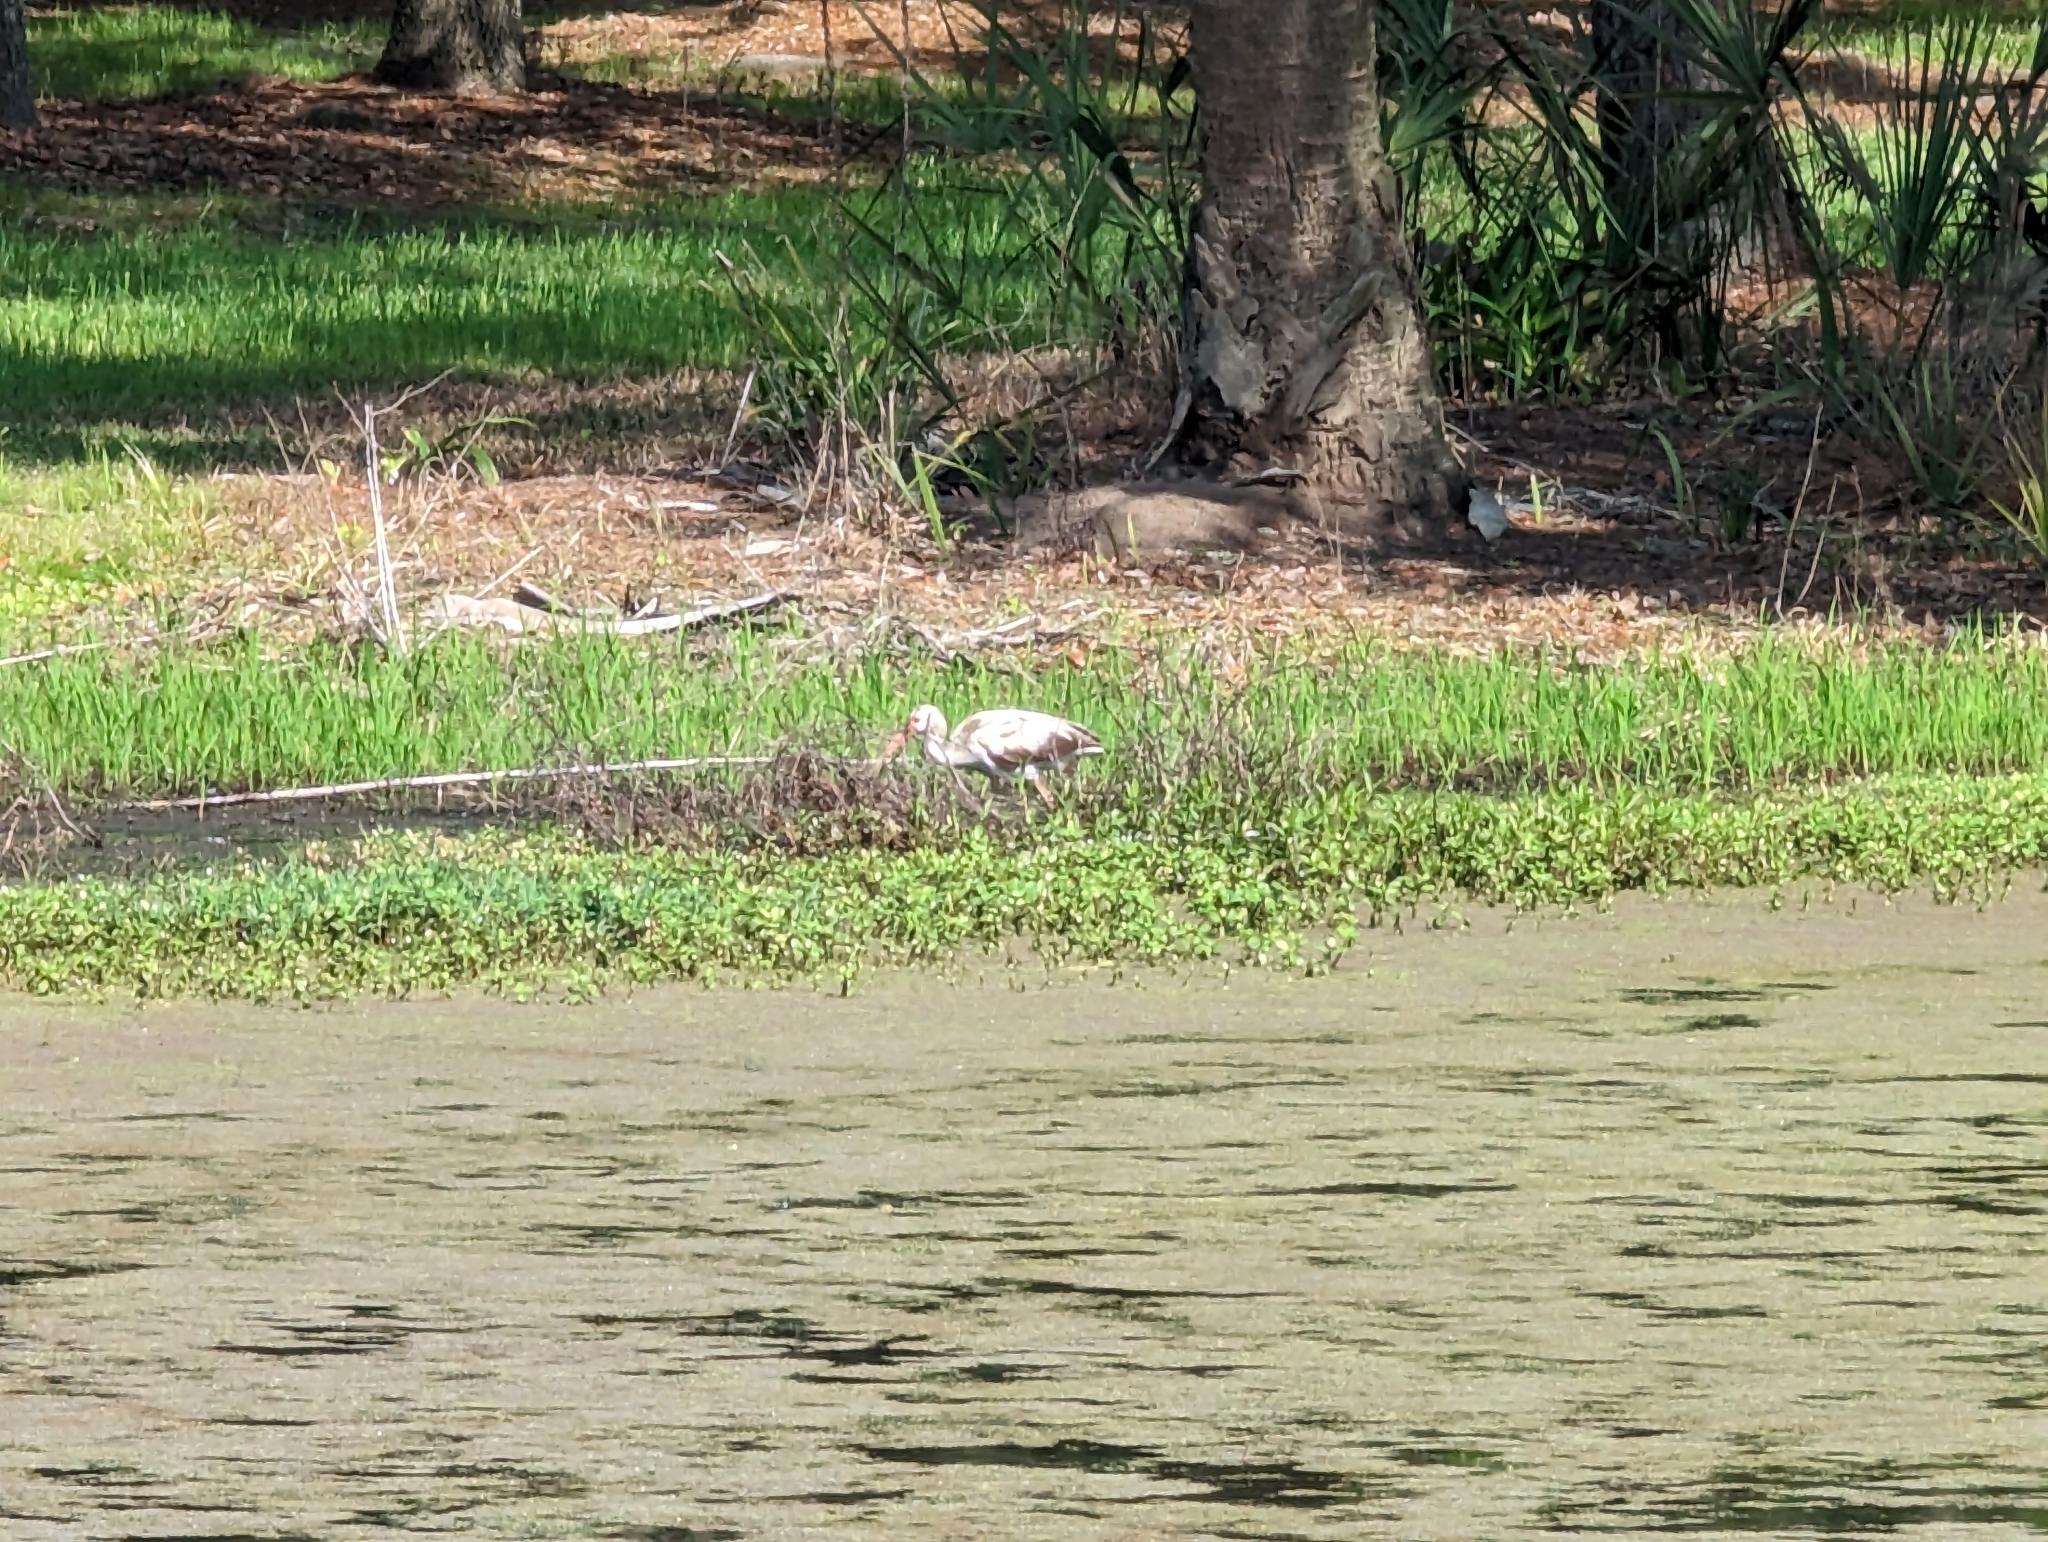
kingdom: Animalia
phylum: Chordata
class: Aves
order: Pelecaniformes
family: Threskiornithidae
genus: Eudocimus
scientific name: Eudocimus albus
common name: White ibis
